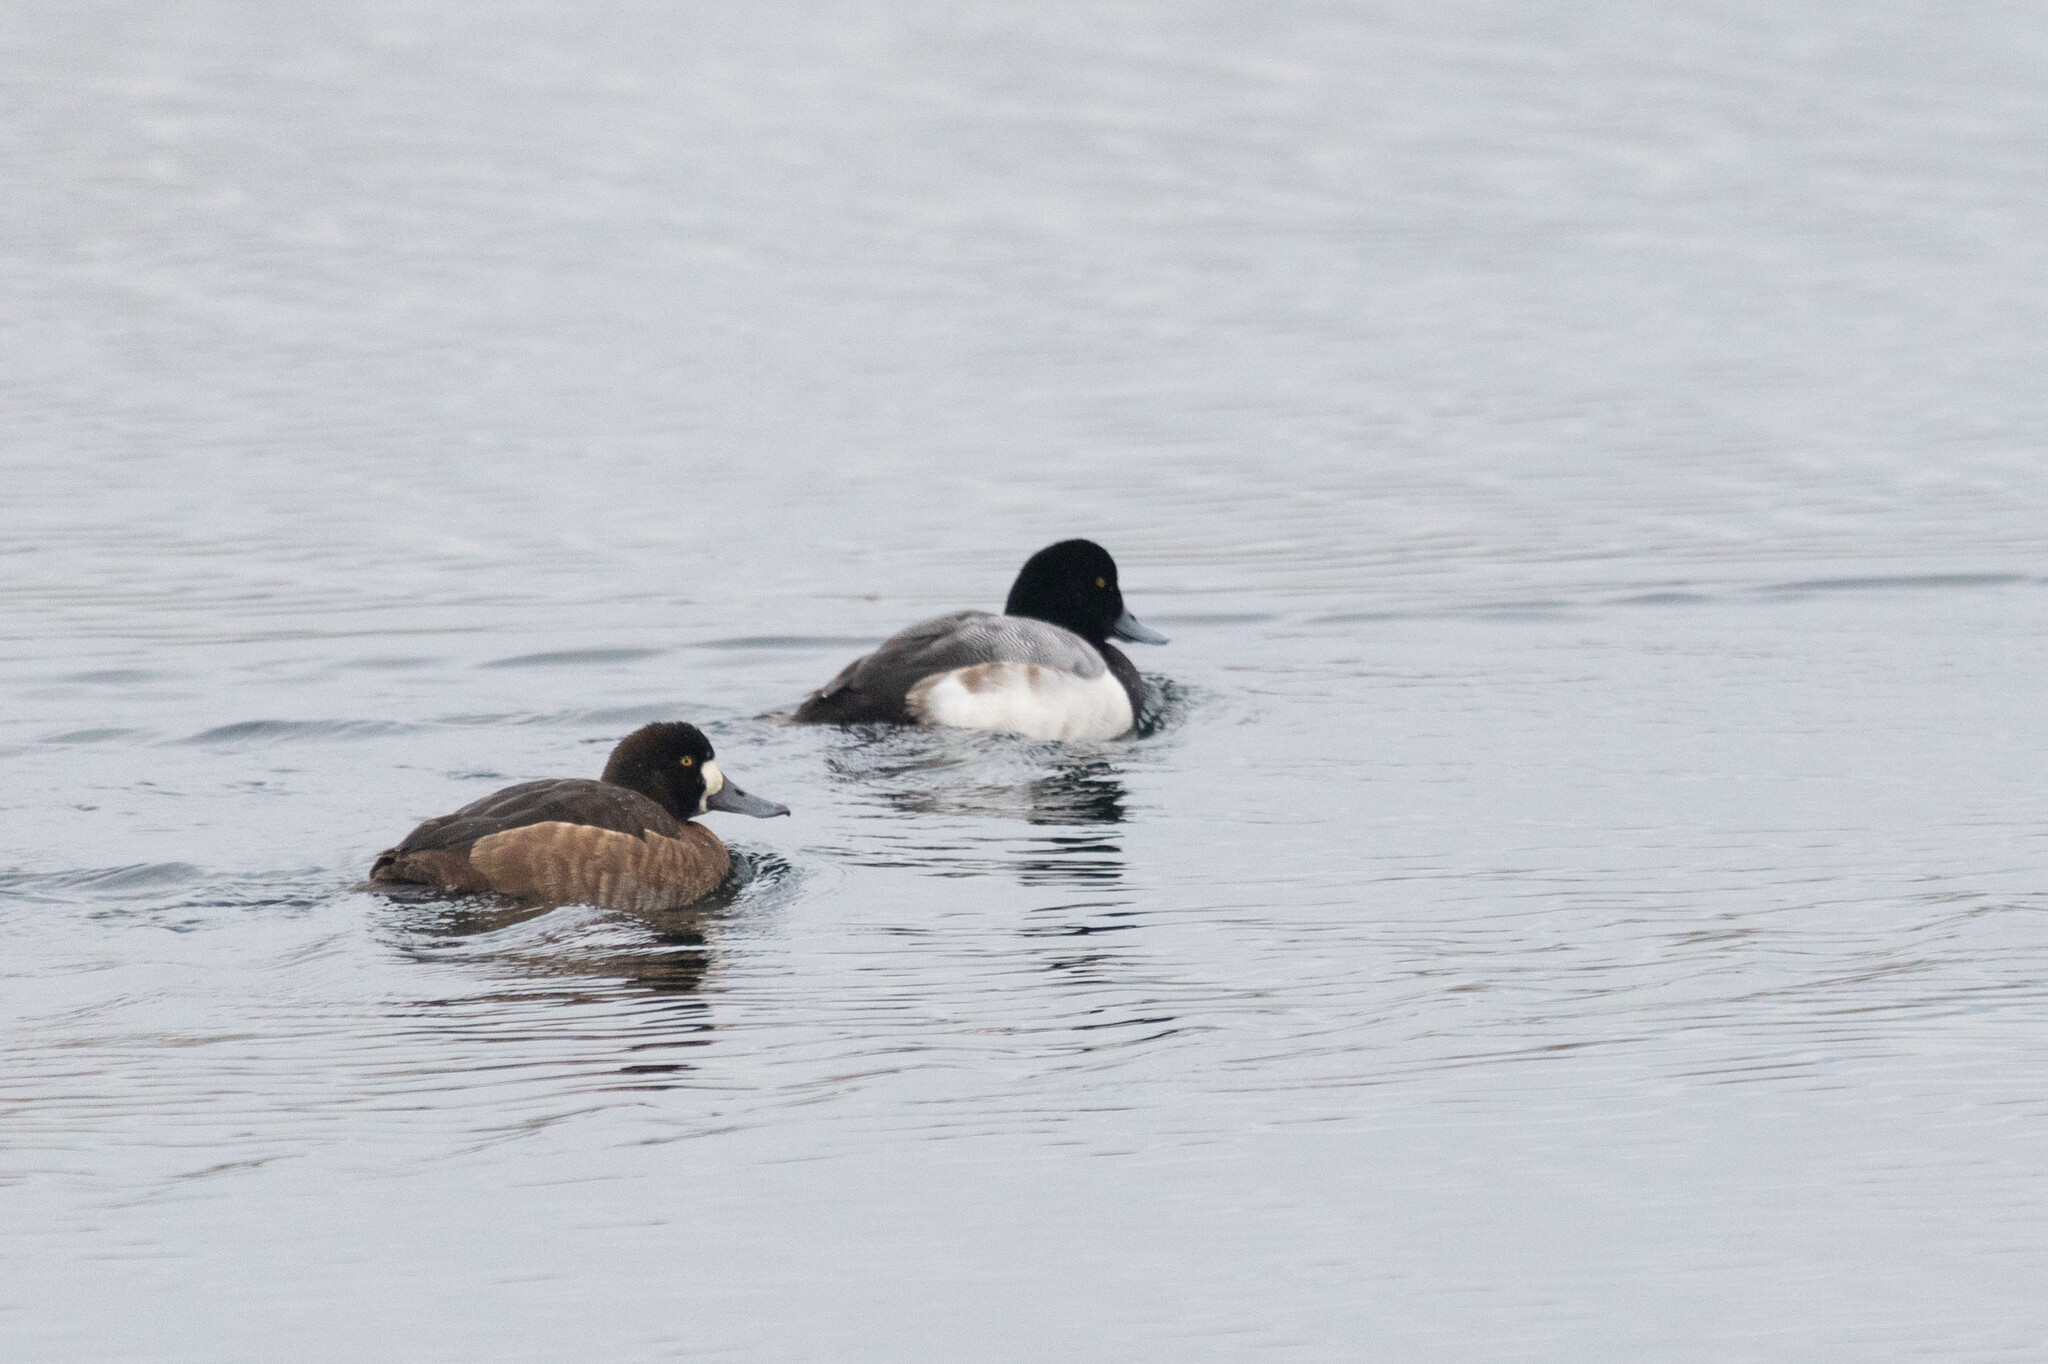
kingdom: Animalia
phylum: Chordata
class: Aves
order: Anseriformes
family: Anatidae
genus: Aythya
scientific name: Aythya marila
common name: Greater scaup
